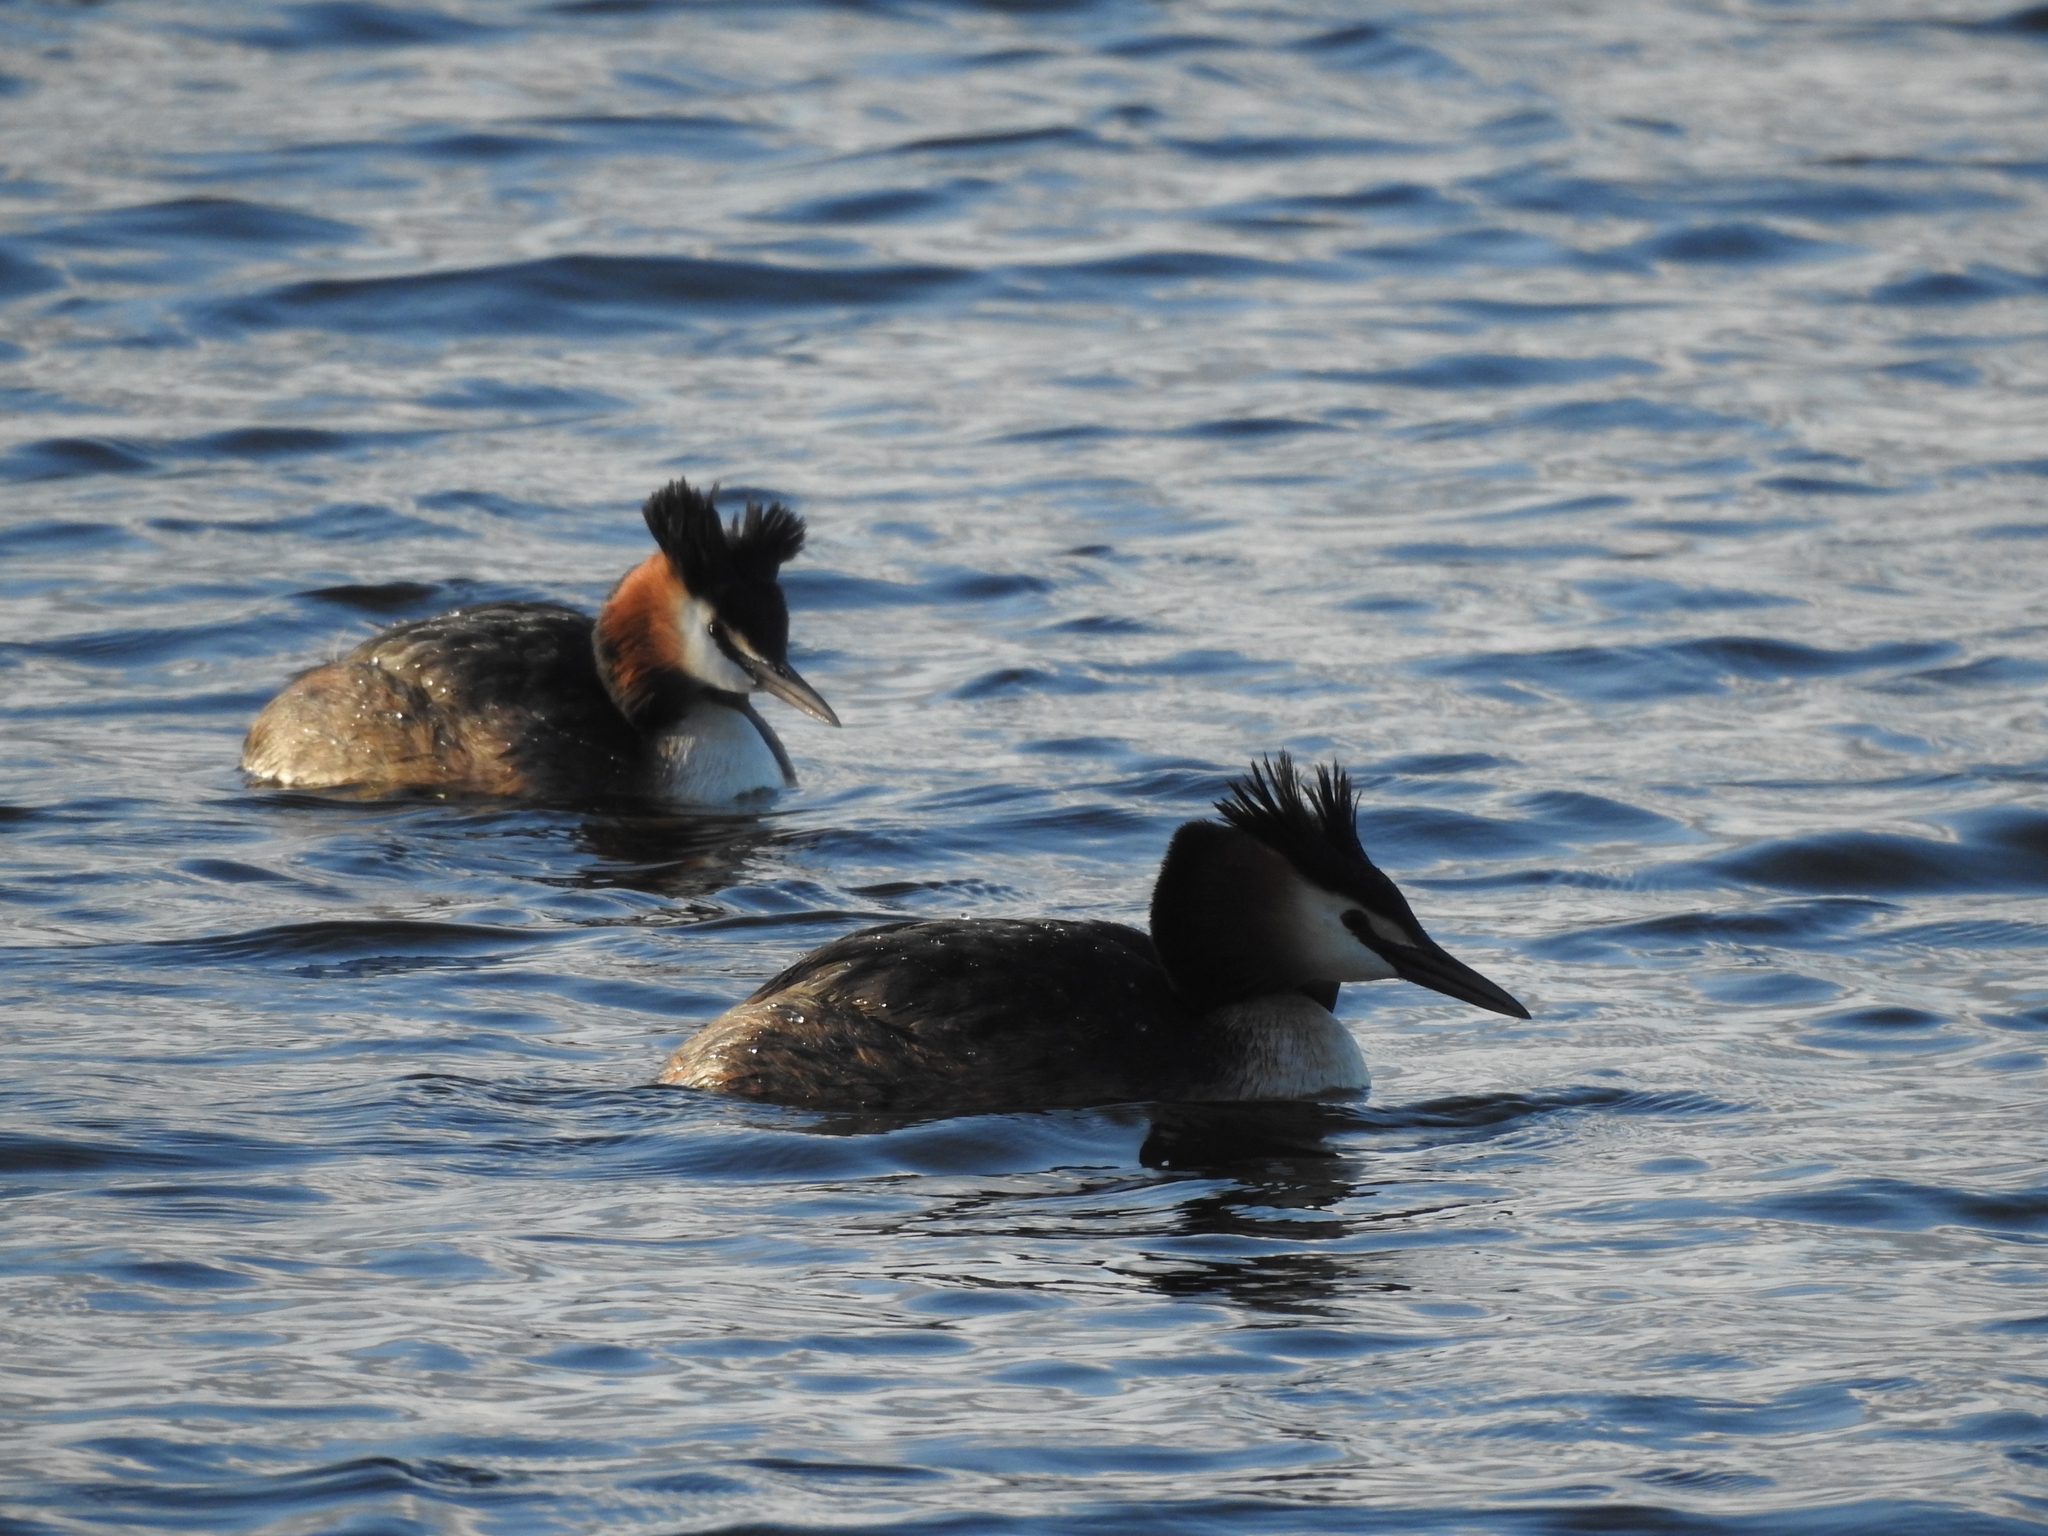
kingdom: Animalia
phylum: Chordata
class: Aves
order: Podicipediformes
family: Podicipedidae
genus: Podiceps
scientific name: Podiceps cristatus
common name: Great crested grebe
